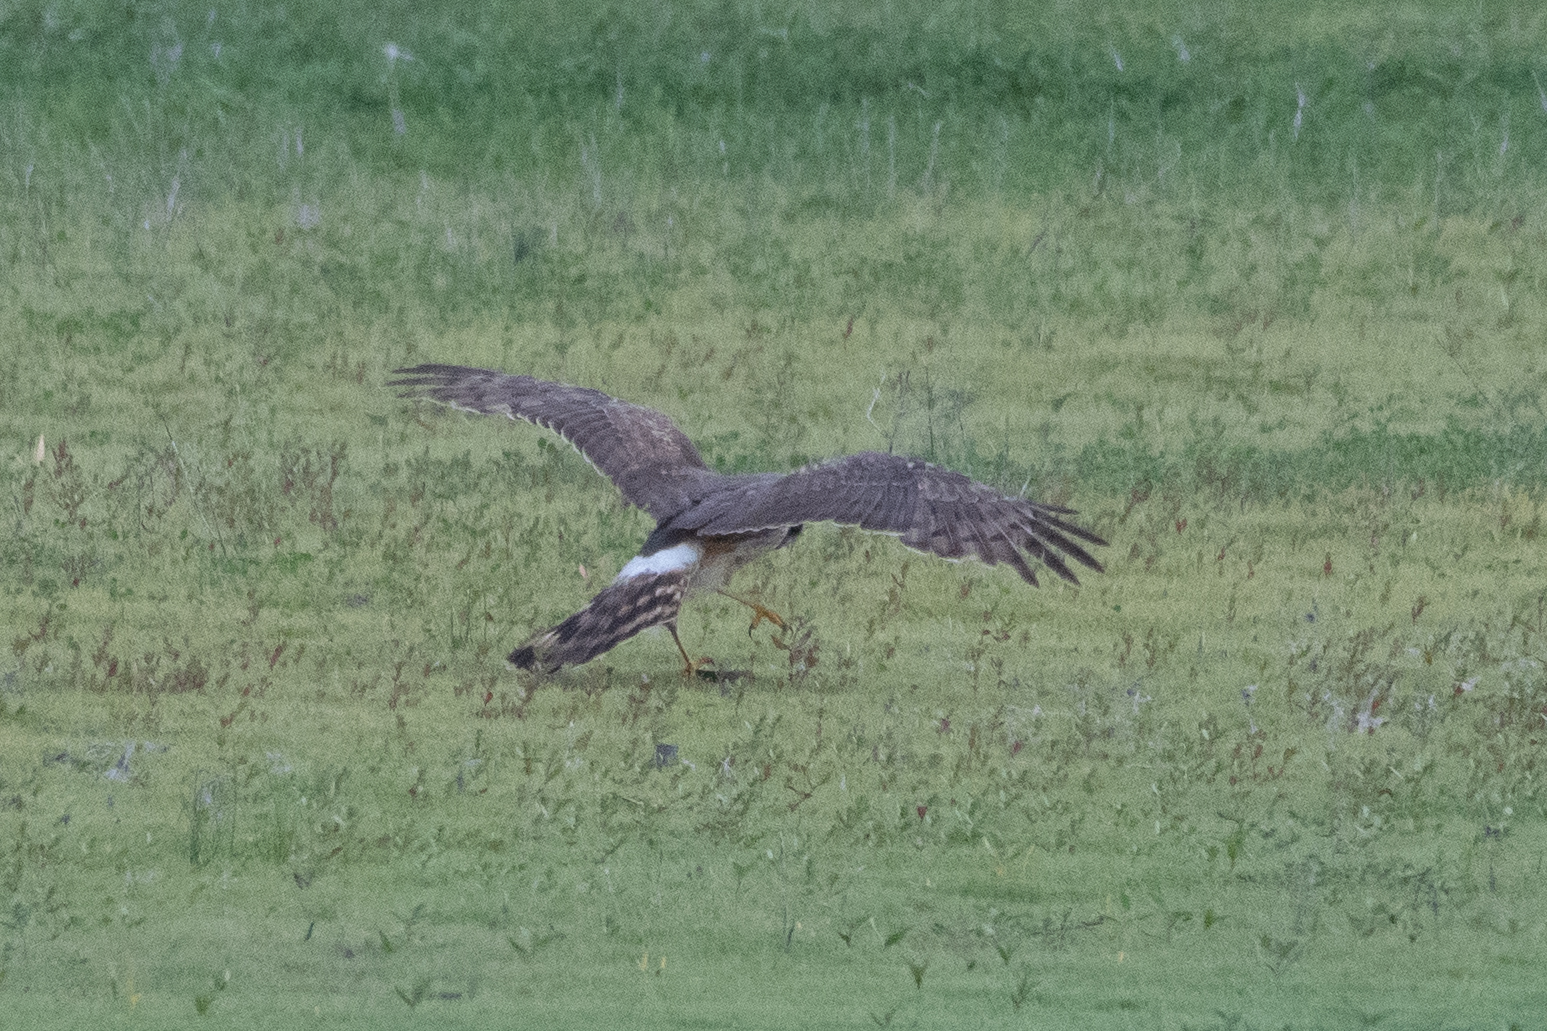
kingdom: Animalia
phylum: Chordata
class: Aves
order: Accipitriformes
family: Accipitridae
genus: Circus
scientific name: Circus cyaneus
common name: Hen harrier
